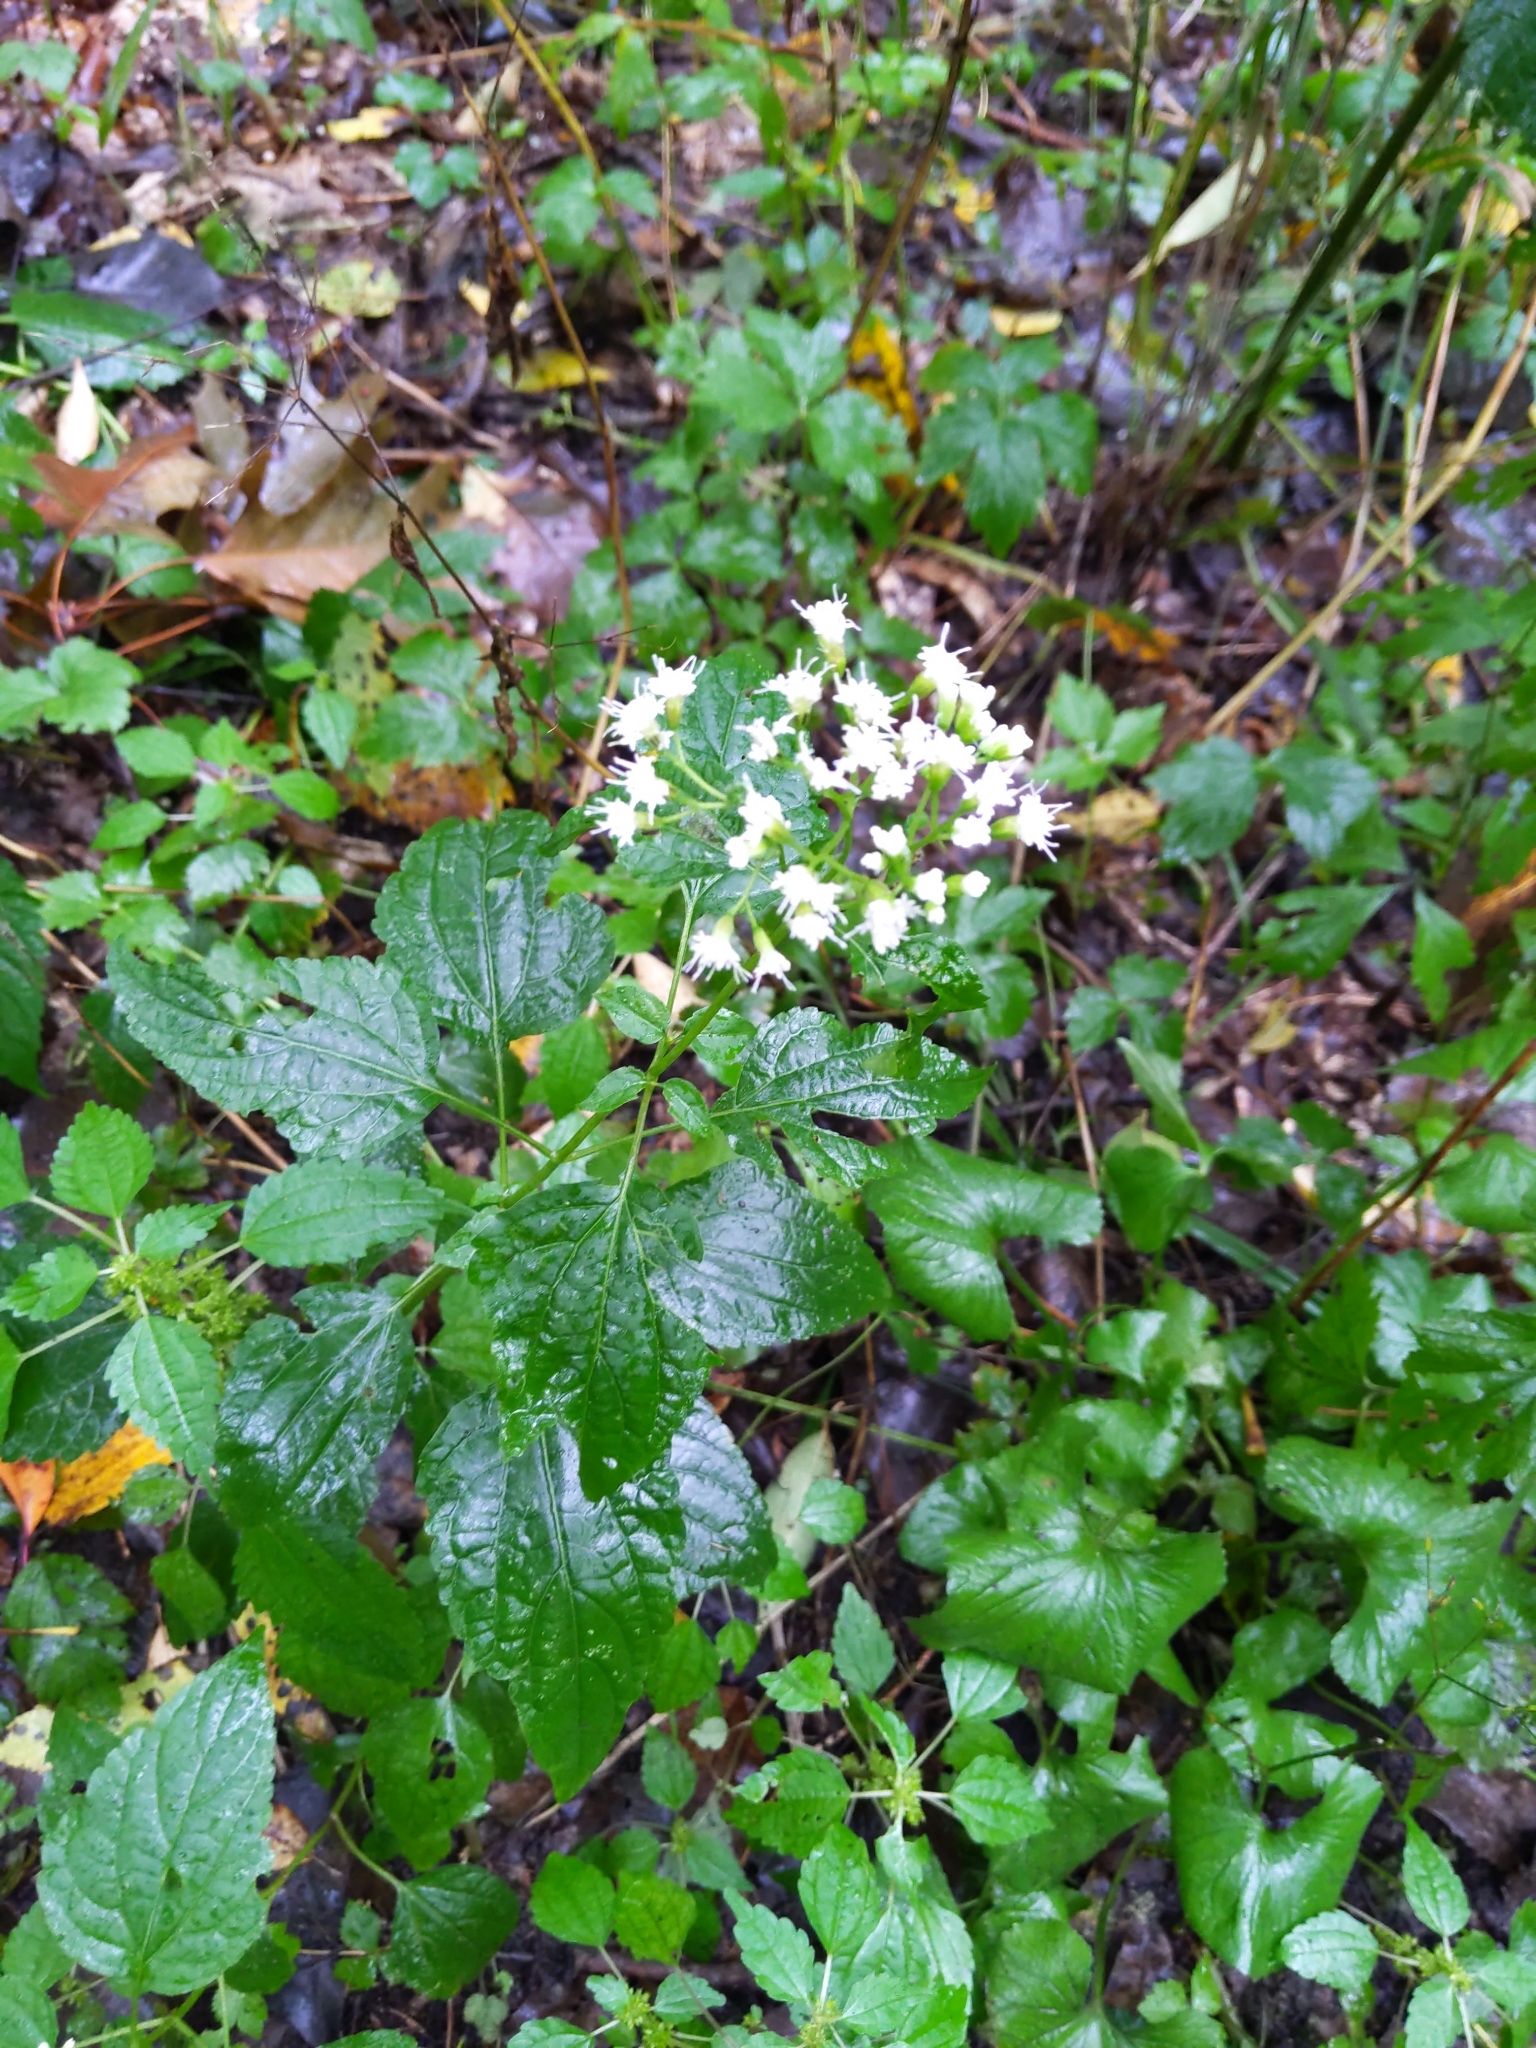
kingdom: Plantae
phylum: Tracheophyta
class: Magnoliopsida
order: Asterales
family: Asteraceae
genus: Ageratina
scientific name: Ageratina altissima
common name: White snakeroot
